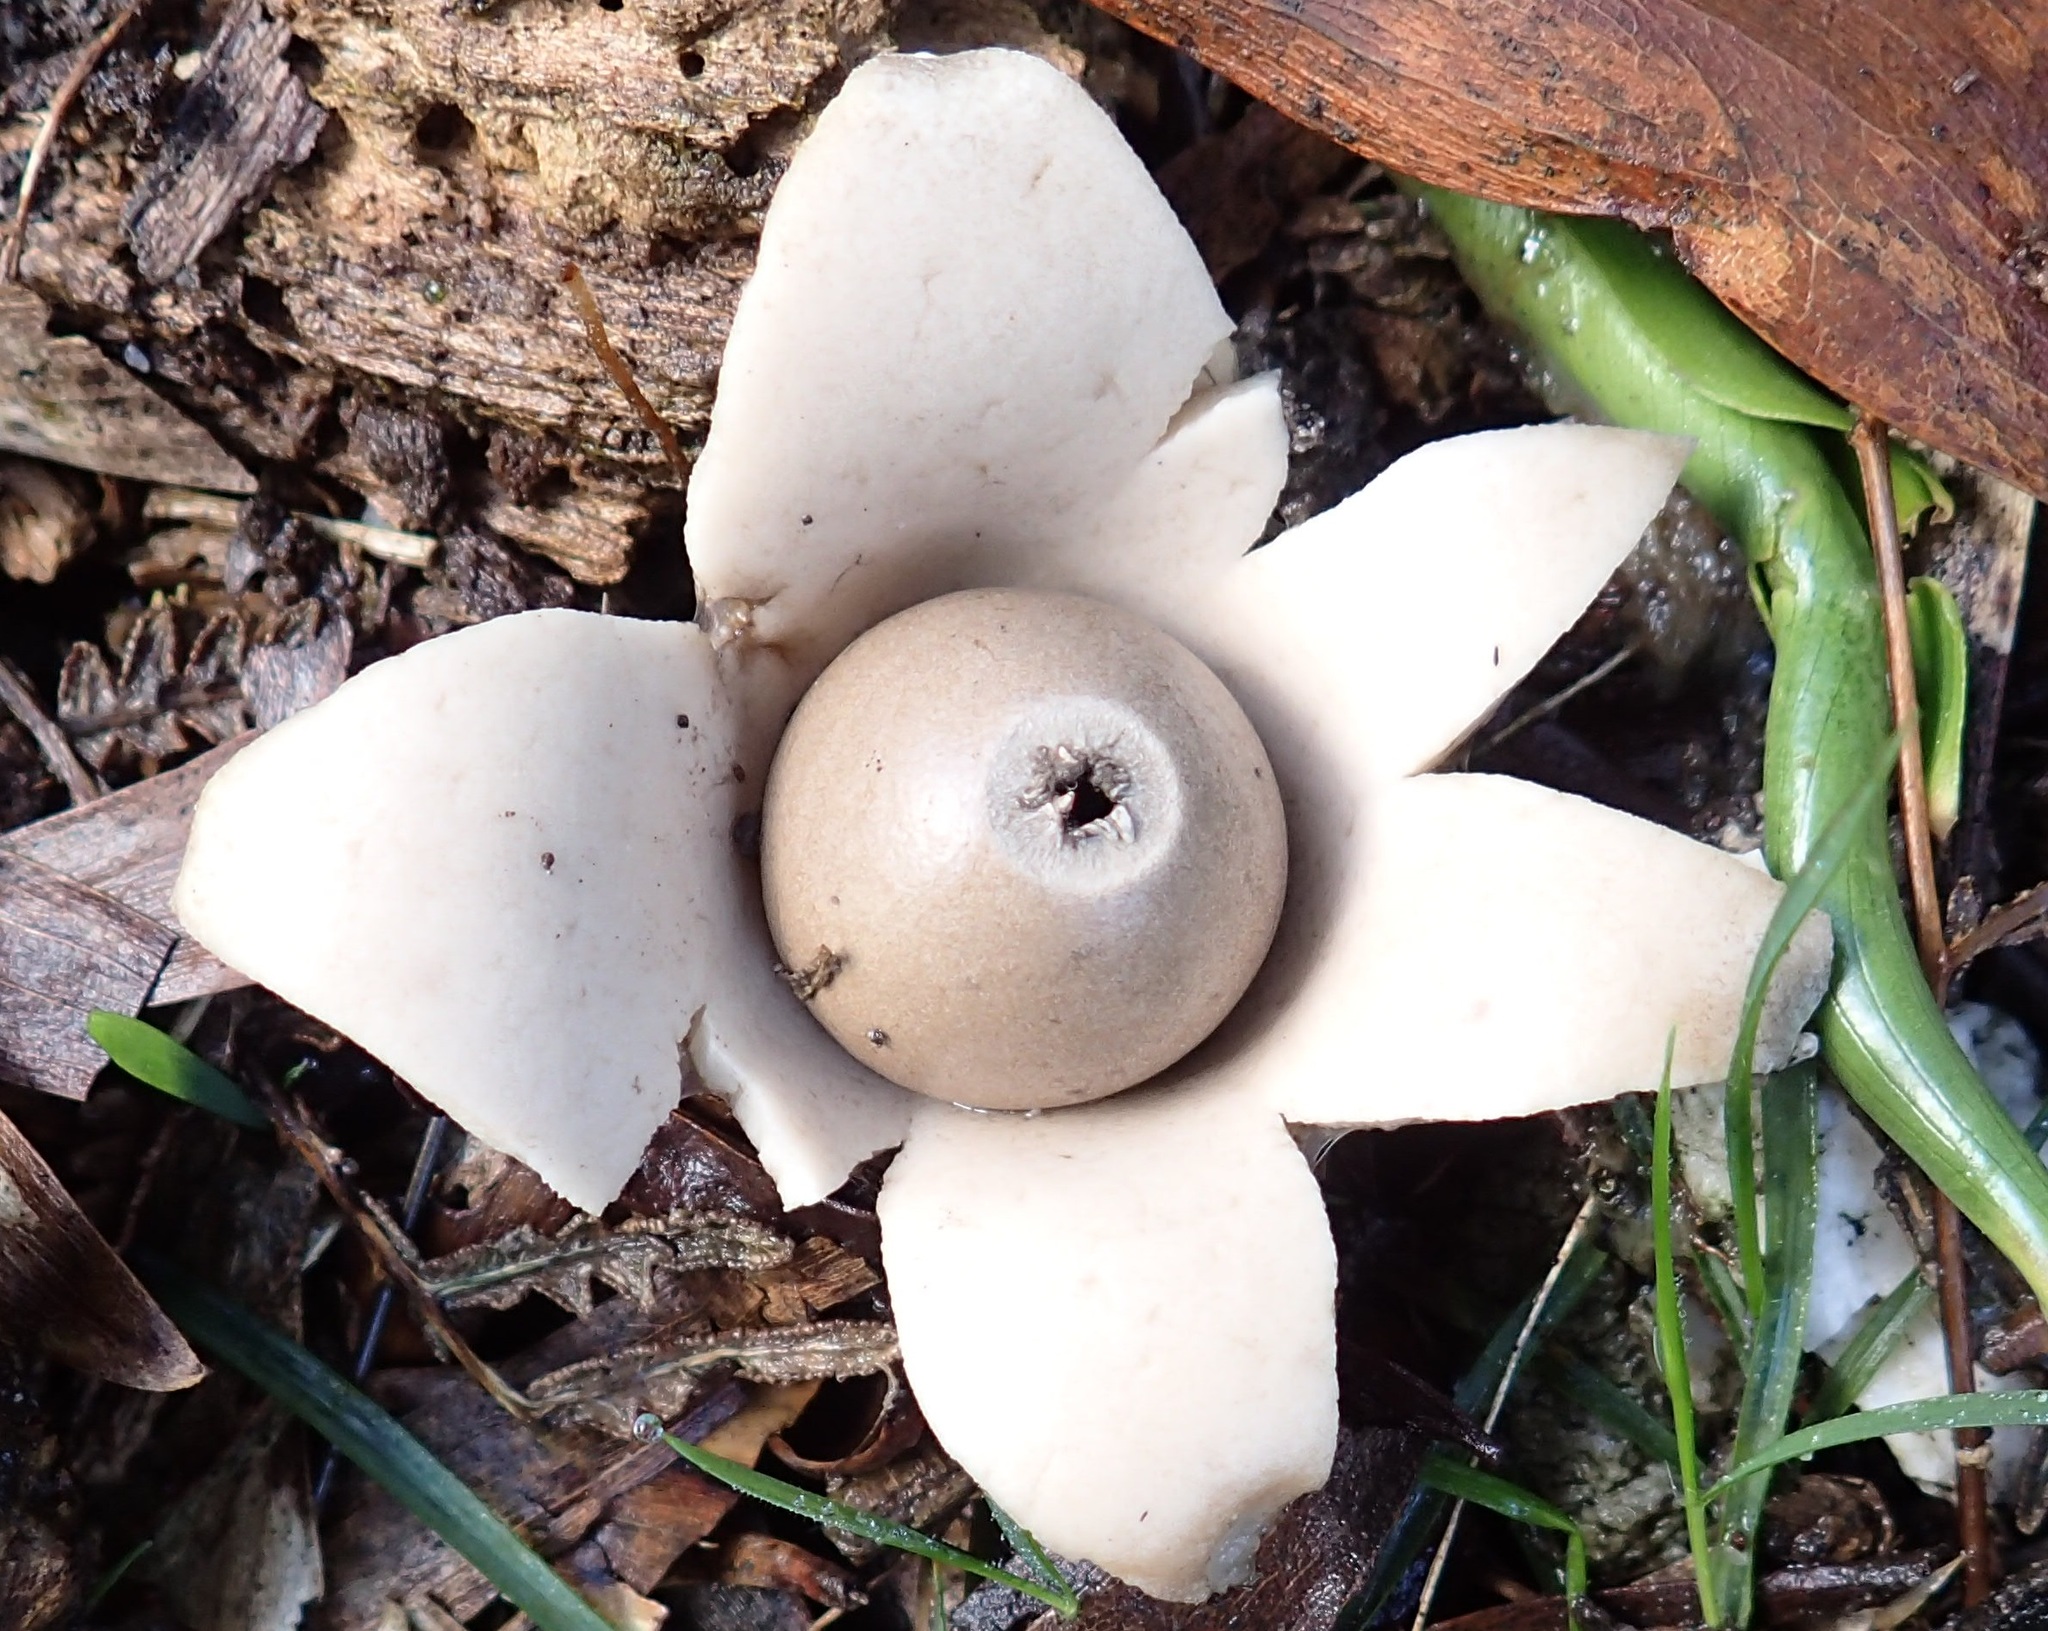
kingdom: Fungi
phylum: Basidiomycota
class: Agaricomycetes
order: Geastrales
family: Geastraceae
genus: Geastrum
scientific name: Geastrum triplex
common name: Collared earthstar
